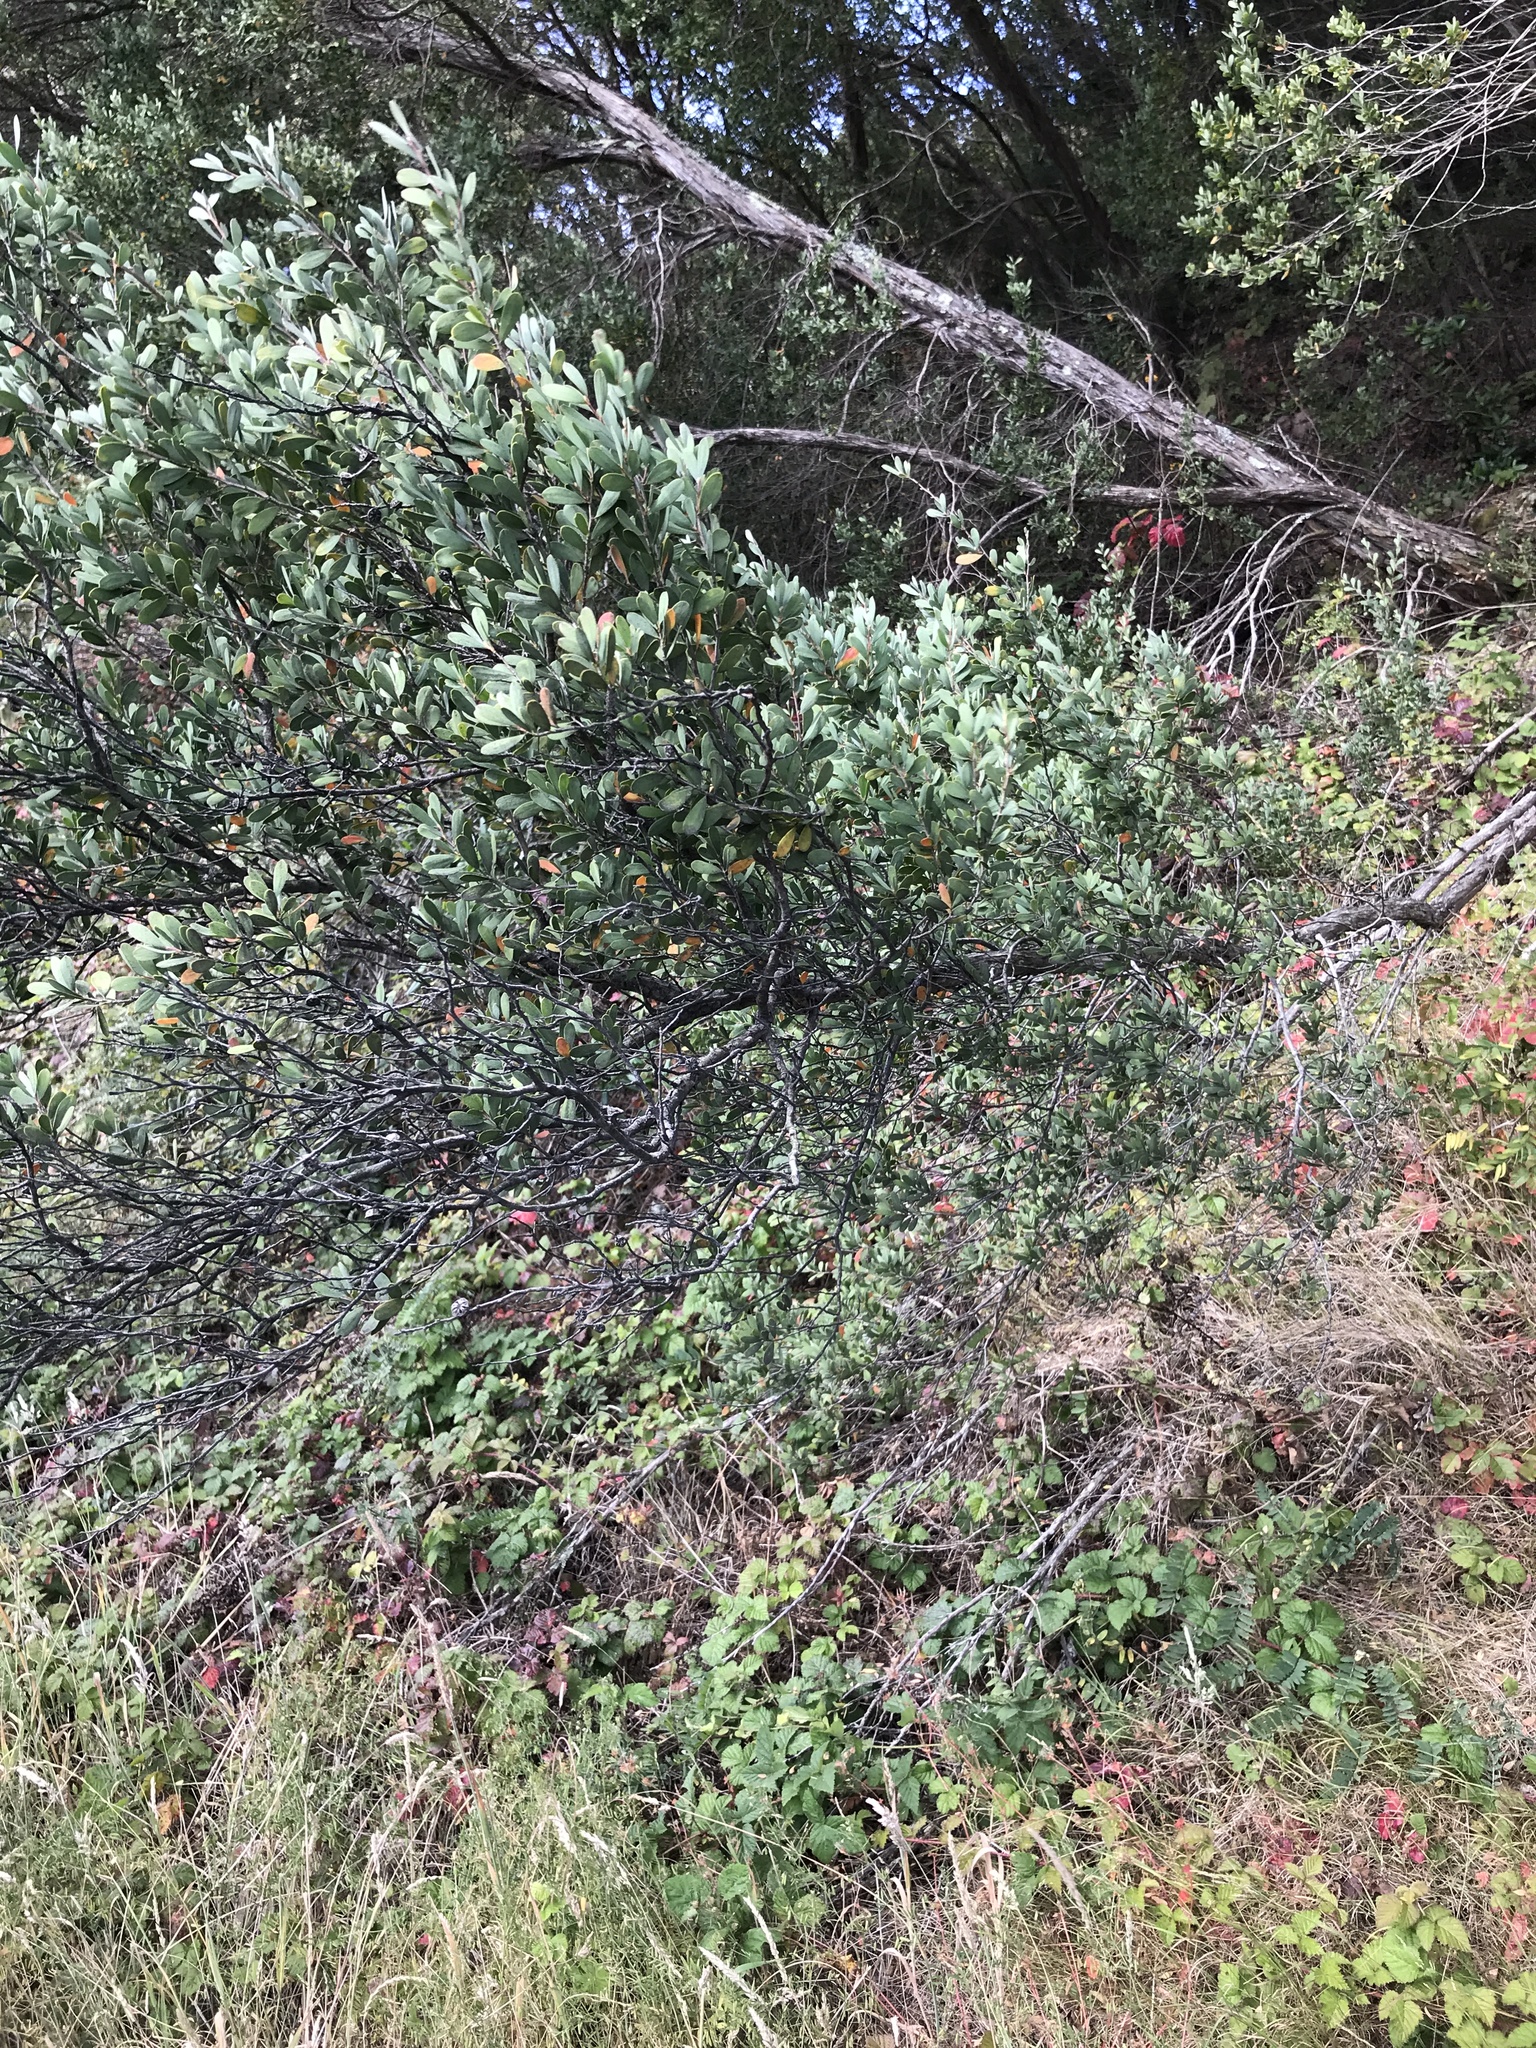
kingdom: Plantae
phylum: Tracheophyta
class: Magnoliopsida
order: Myrtales
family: Myrtaceae
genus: Leptospermum
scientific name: Leptospermum laevigatum
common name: Australian teatree
